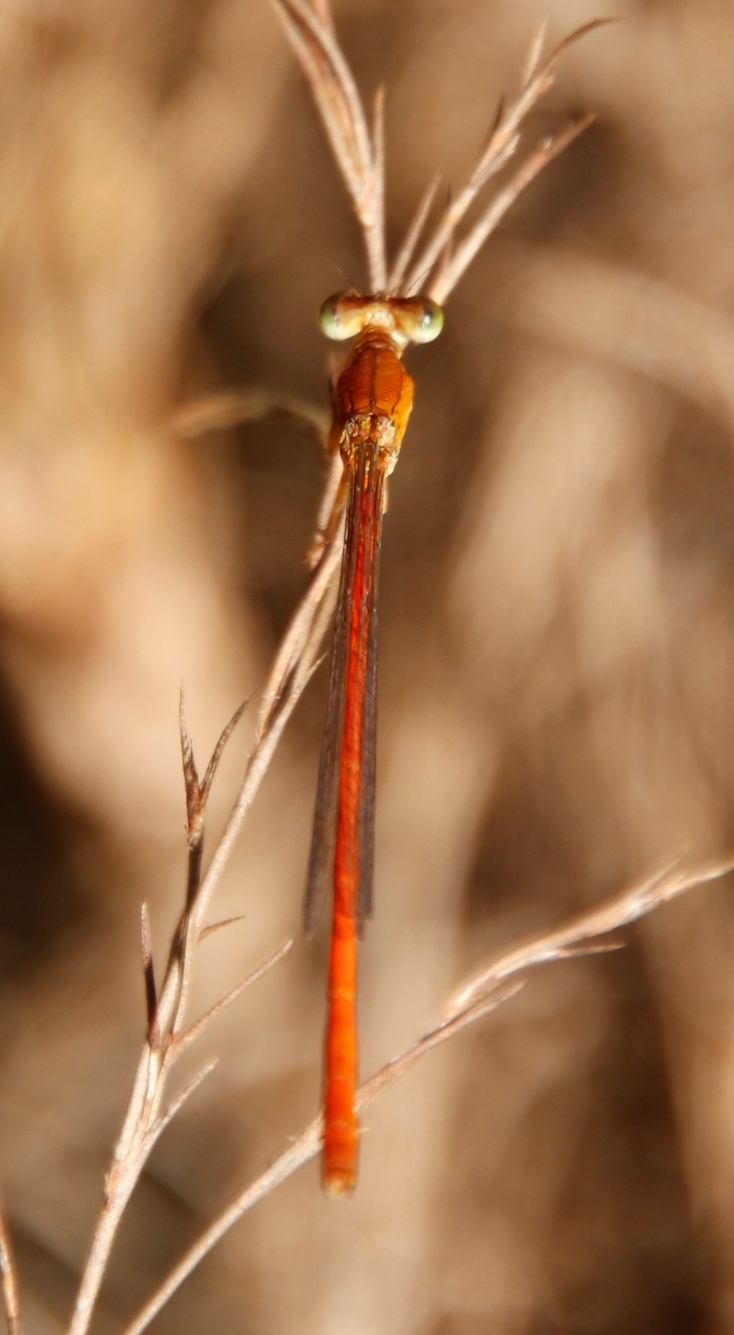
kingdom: Animalia
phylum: Arthropoda
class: Insecta
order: Odonata
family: Coenagrionidae
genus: Ceriagrion
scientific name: Ceriagrion glabrum
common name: Common pond damsel
